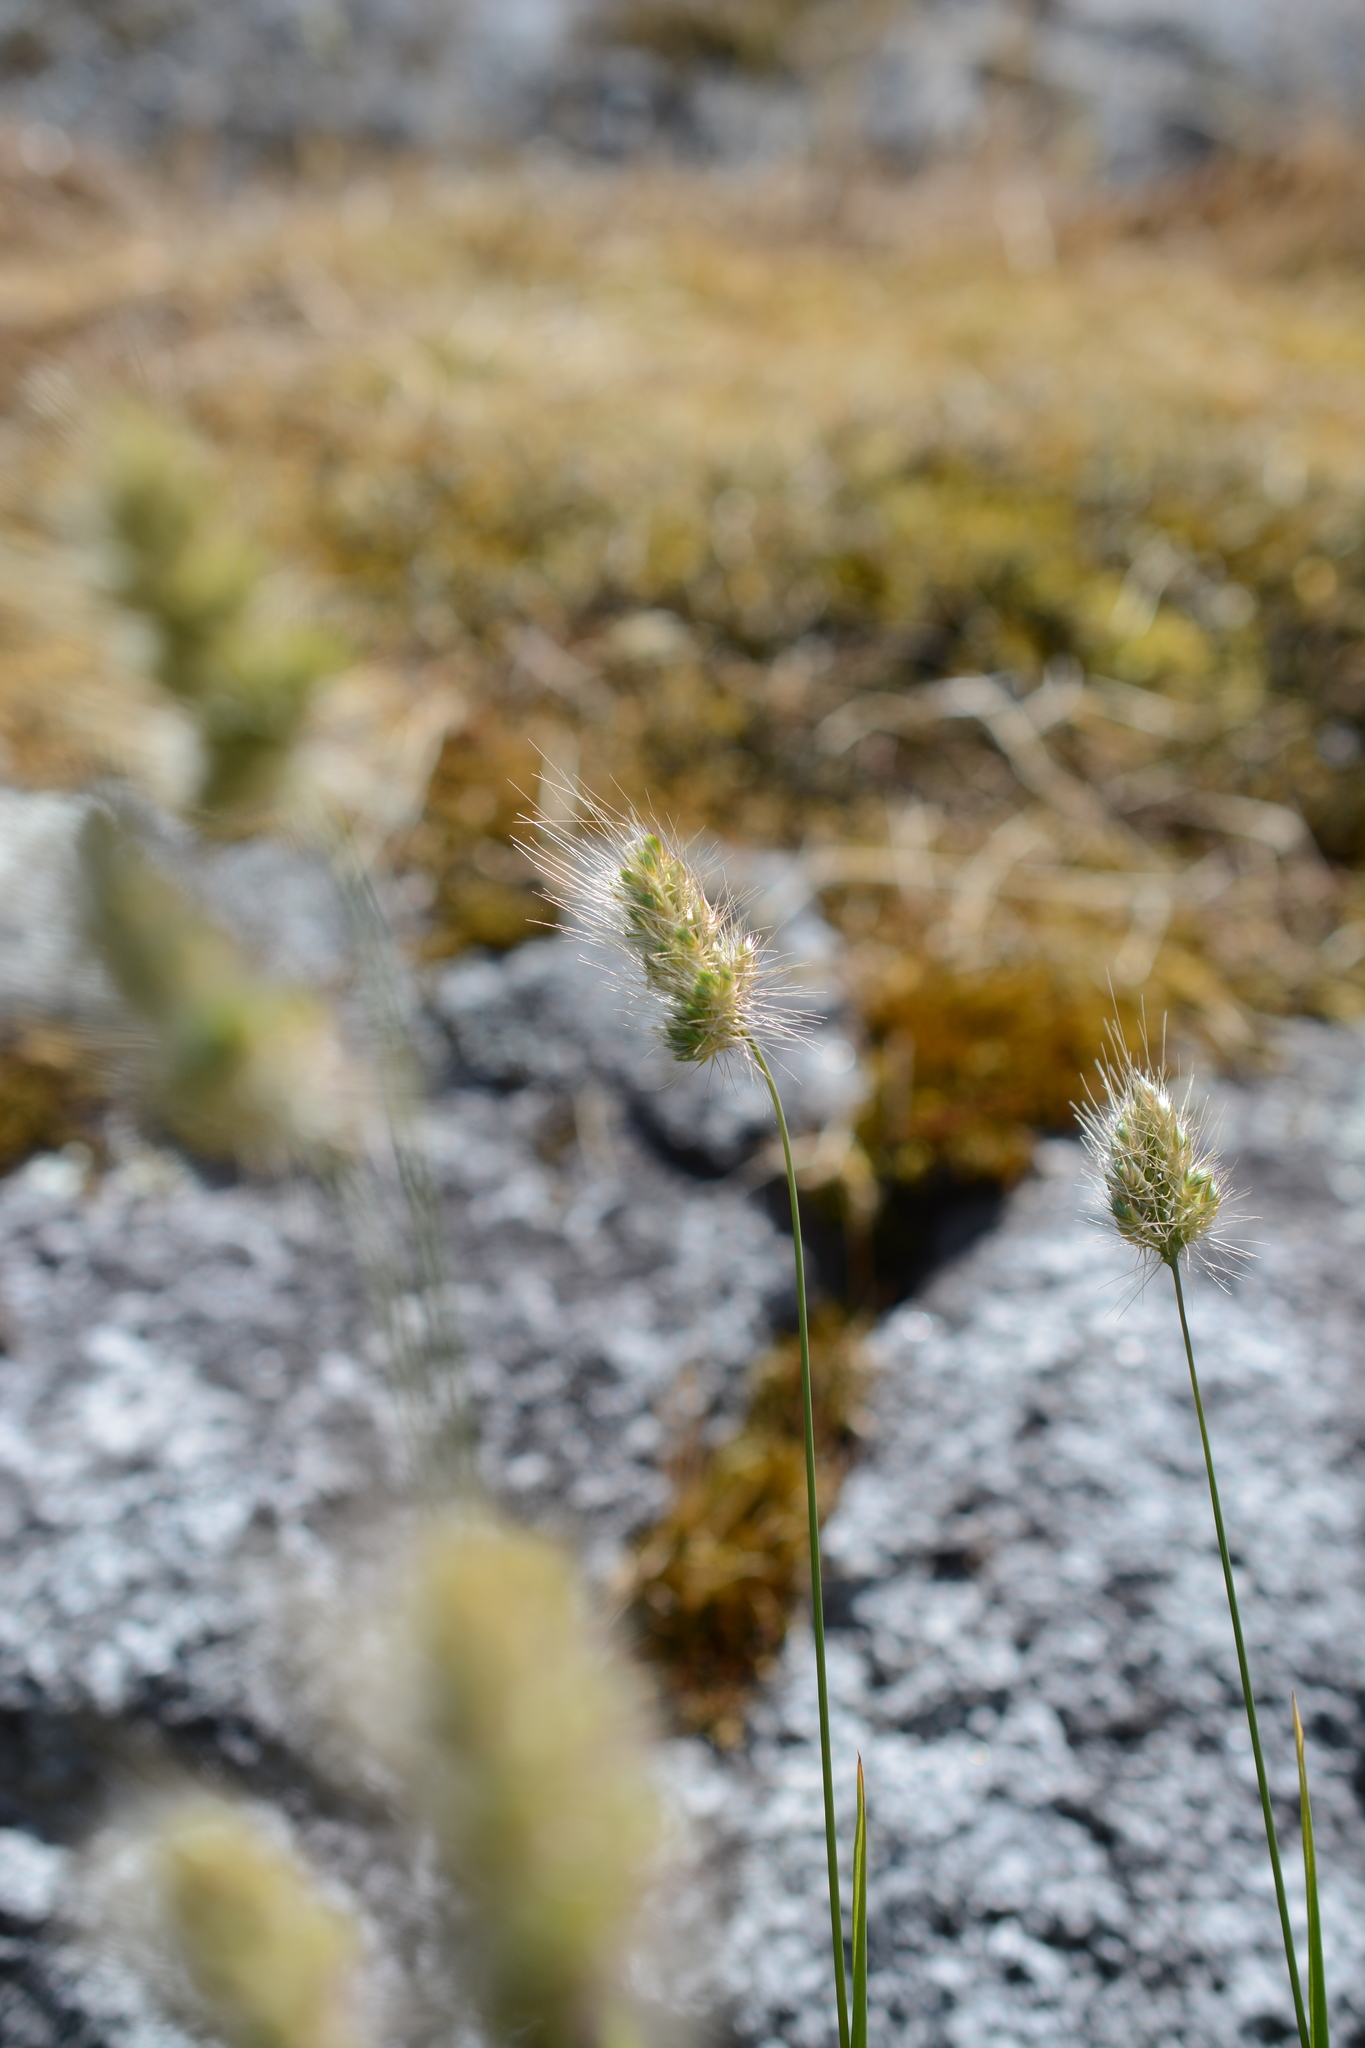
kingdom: Plantae
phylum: Tracheophyta
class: Liliopsida
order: Poales
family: Poaceae
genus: Cynosurus
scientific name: Cynosurus echinatus
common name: Rough dog's-tail
